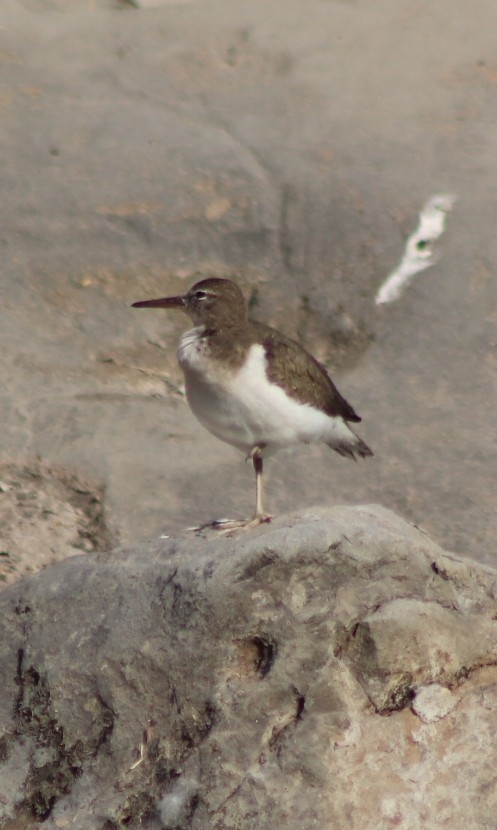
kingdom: Animalia
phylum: Chordata
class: Aves
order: Charadriiformes
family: Scolopacidae
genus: Actitis
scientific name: Actitis macularius
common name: Spotted sandpiper
